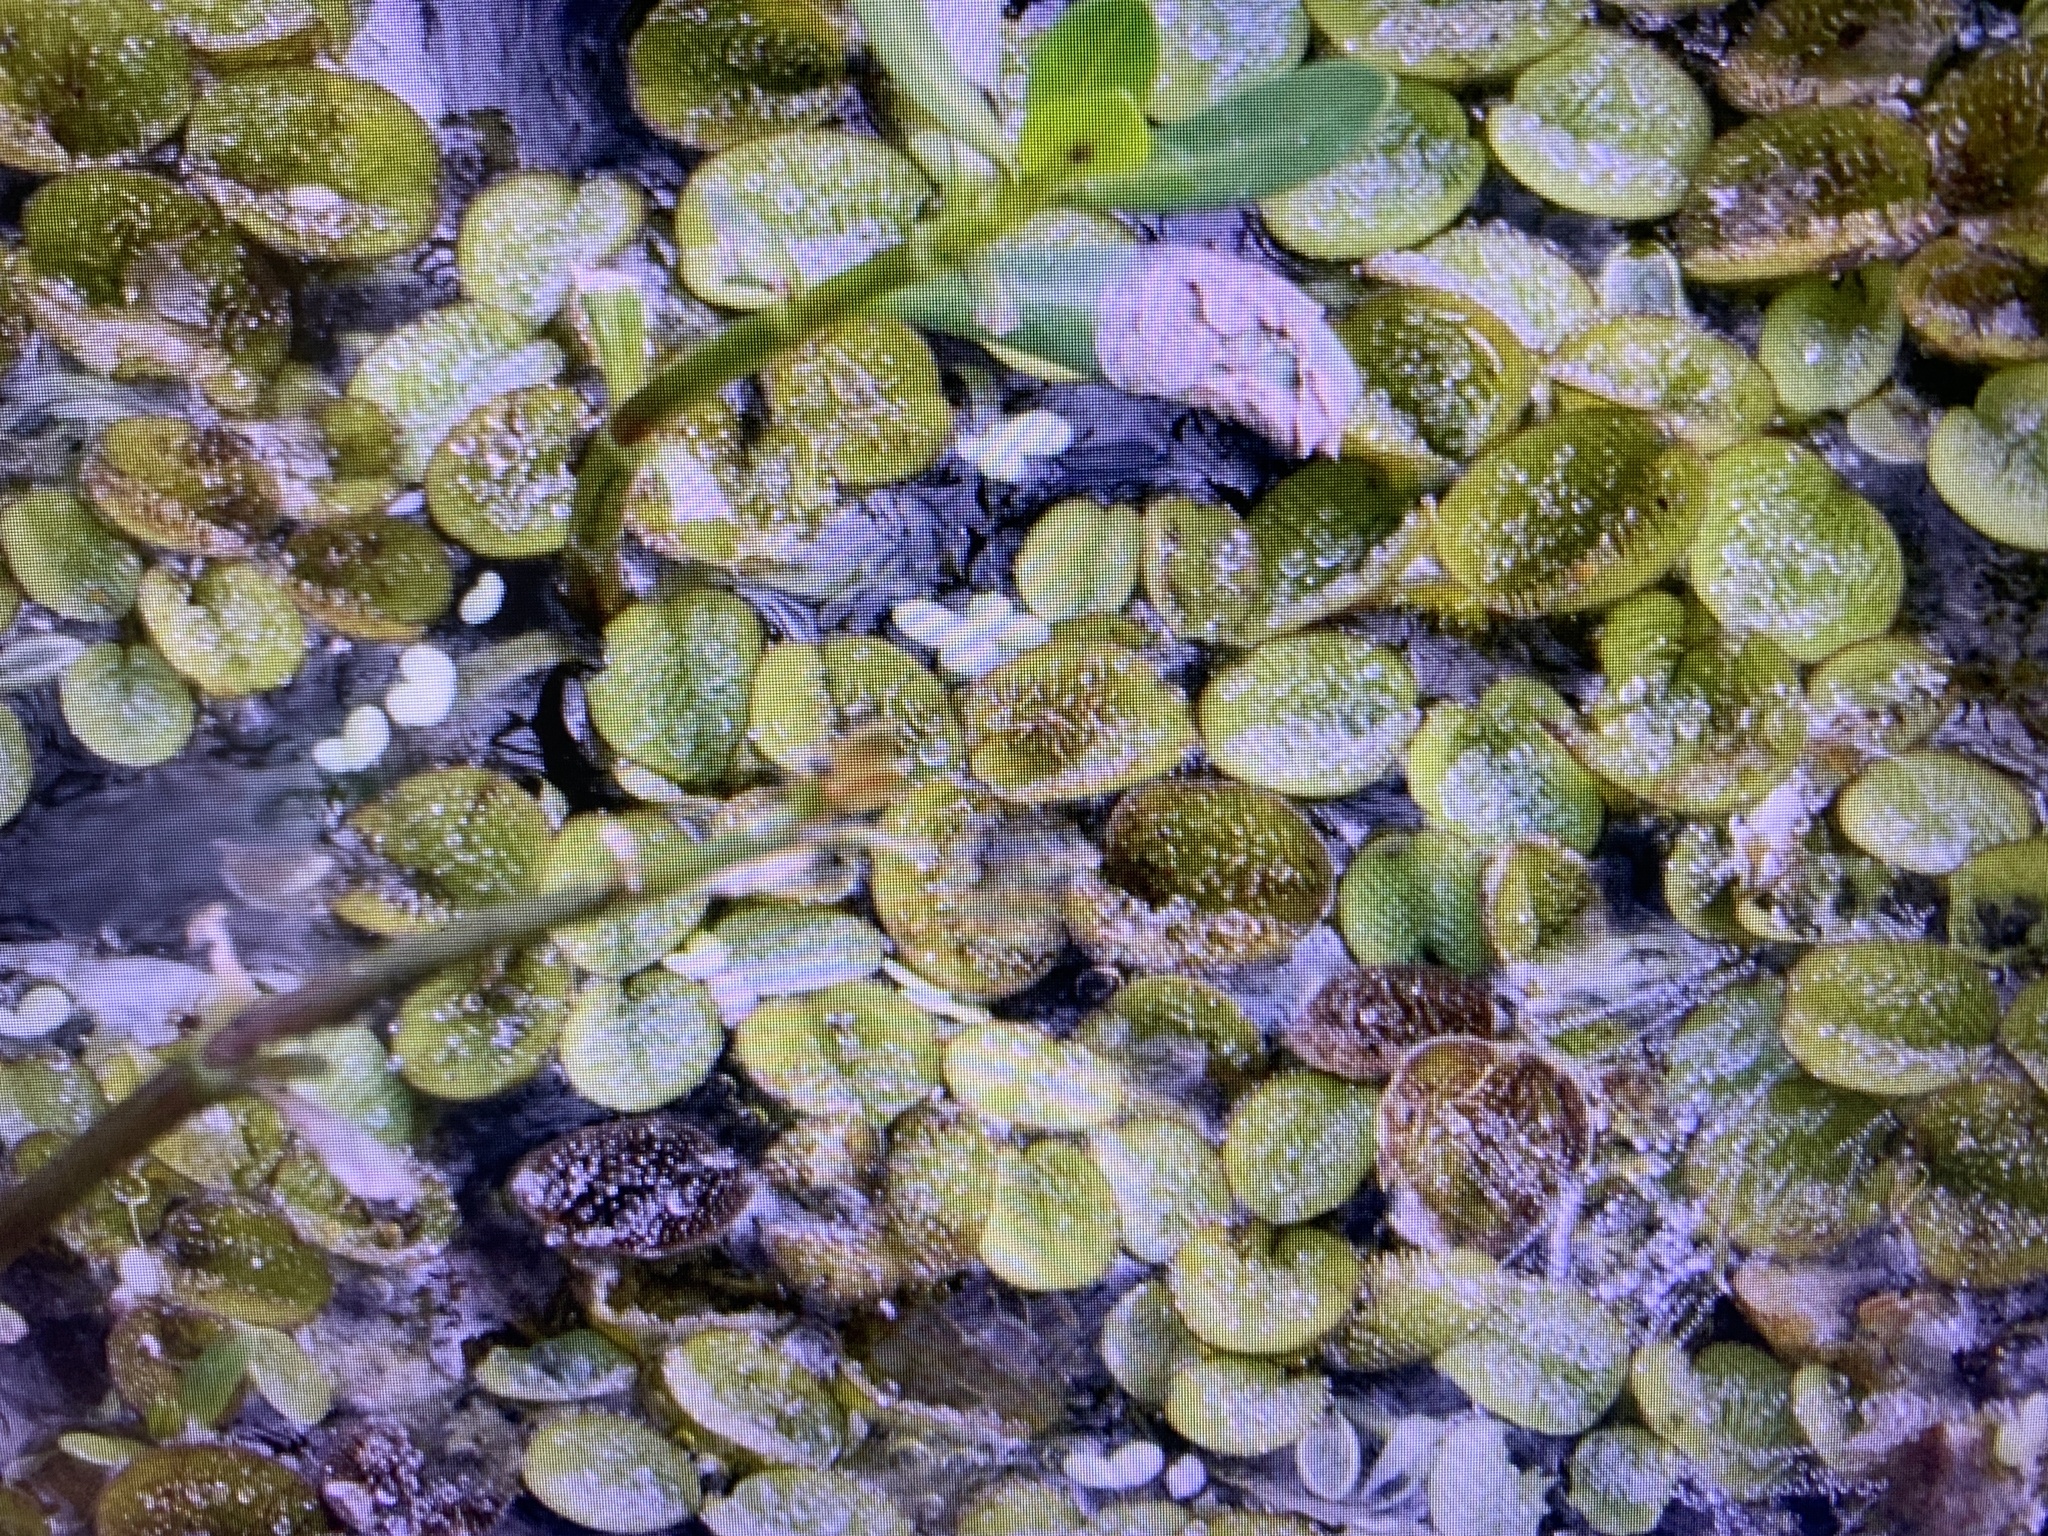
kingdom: Plantae
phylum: Tracheophyta
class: Polypodiopsida
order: Salviniales
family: Salviniaceae
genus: Salvinia
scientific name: Salvinia minima
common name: Water spangles
